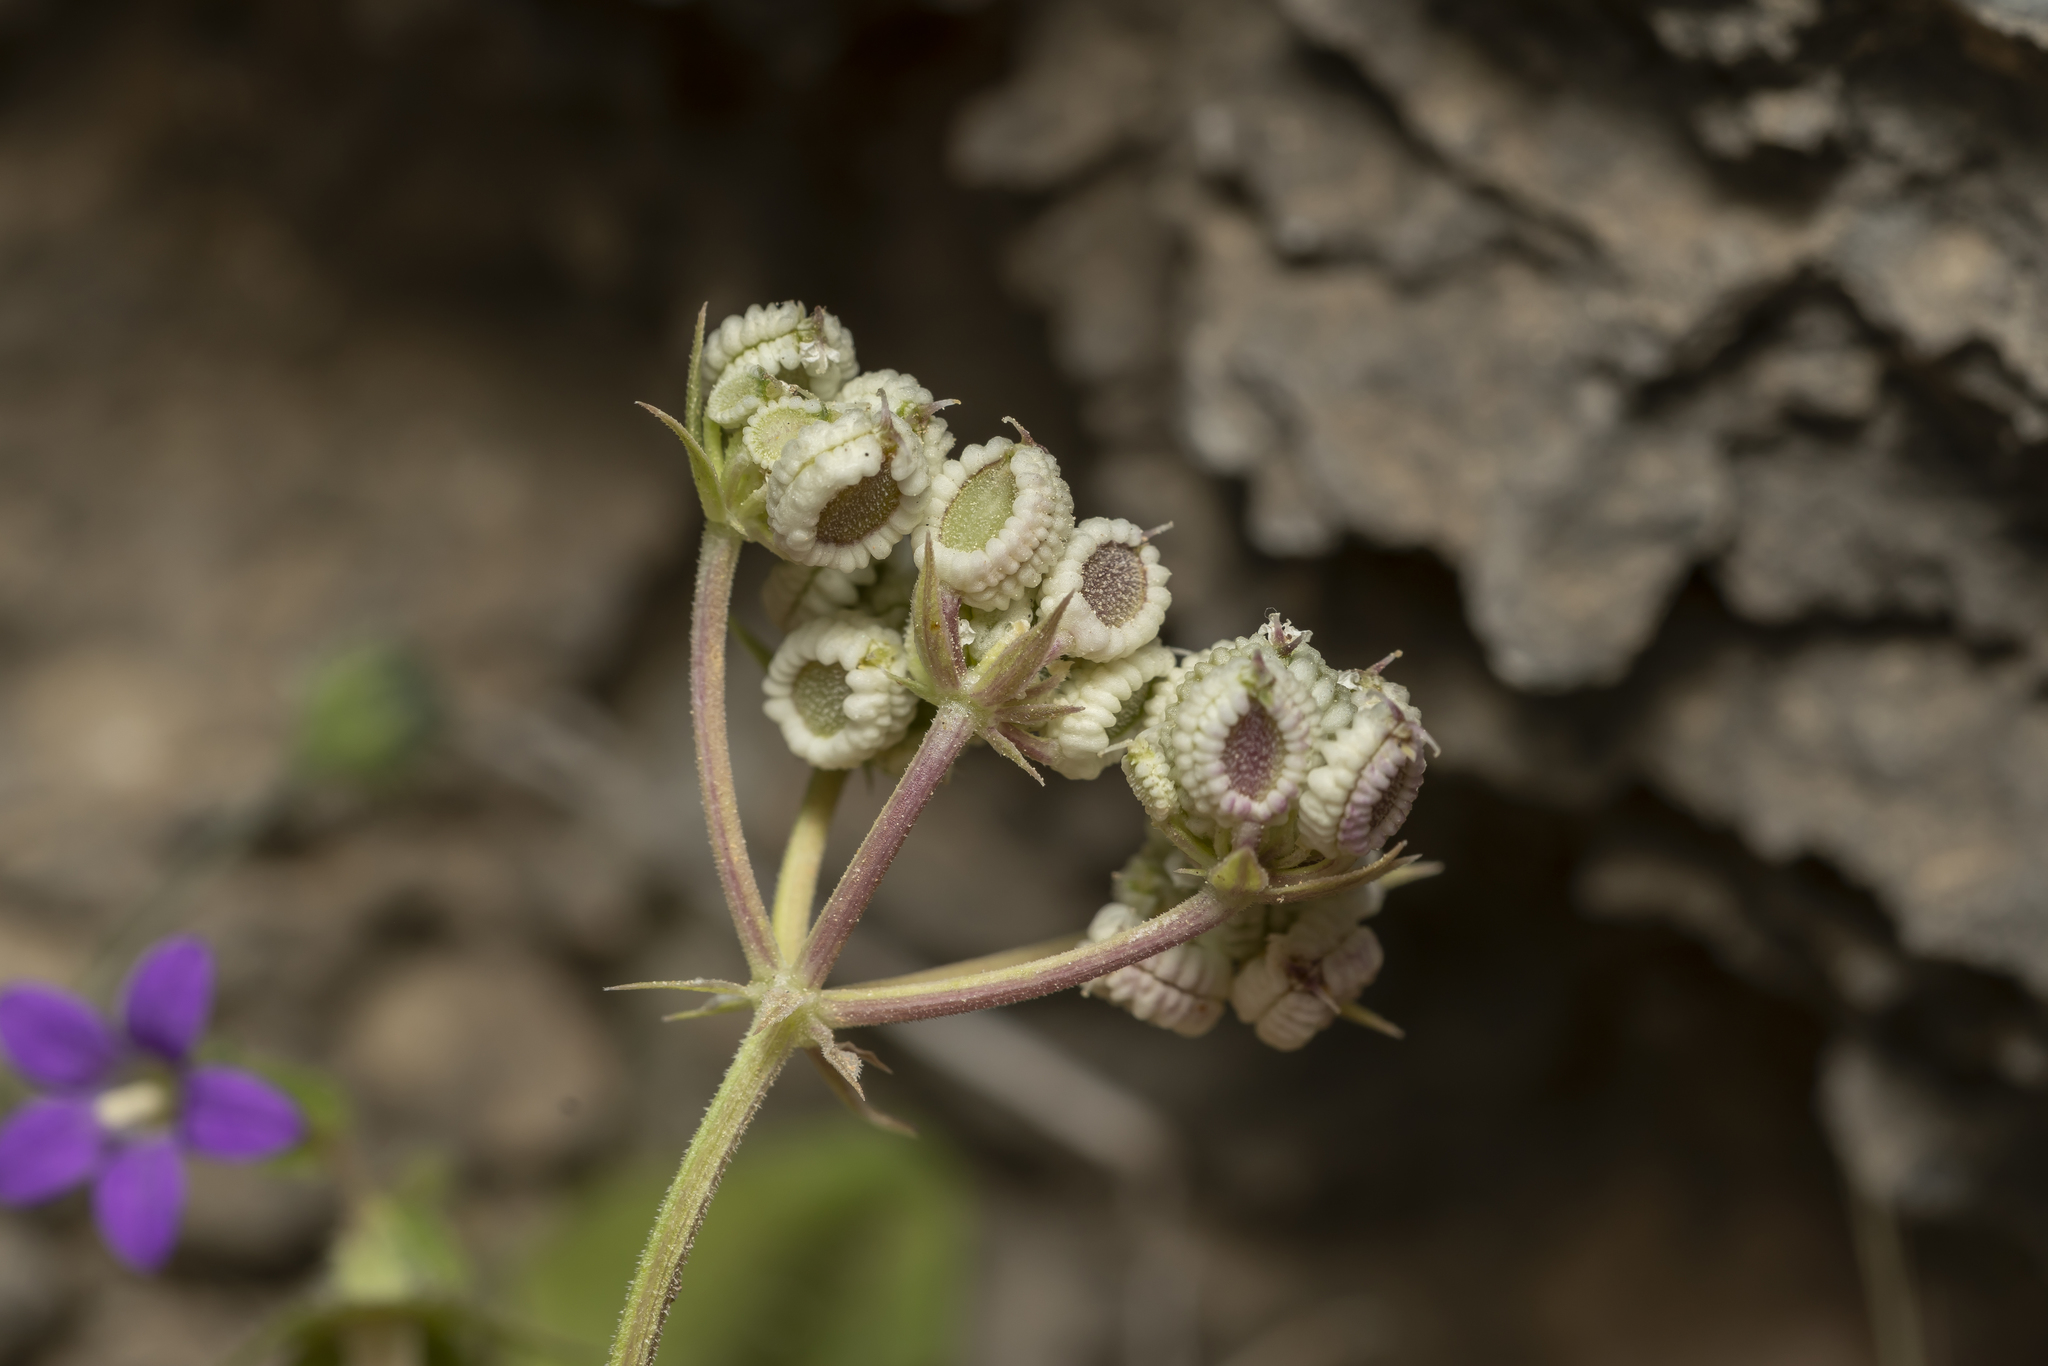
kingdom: Plantae
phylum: Tracheophyta
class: Magnoliopsida
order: Apiales
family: Apiaceae
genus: Tordylium
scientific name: Tordylium pestalozzae
